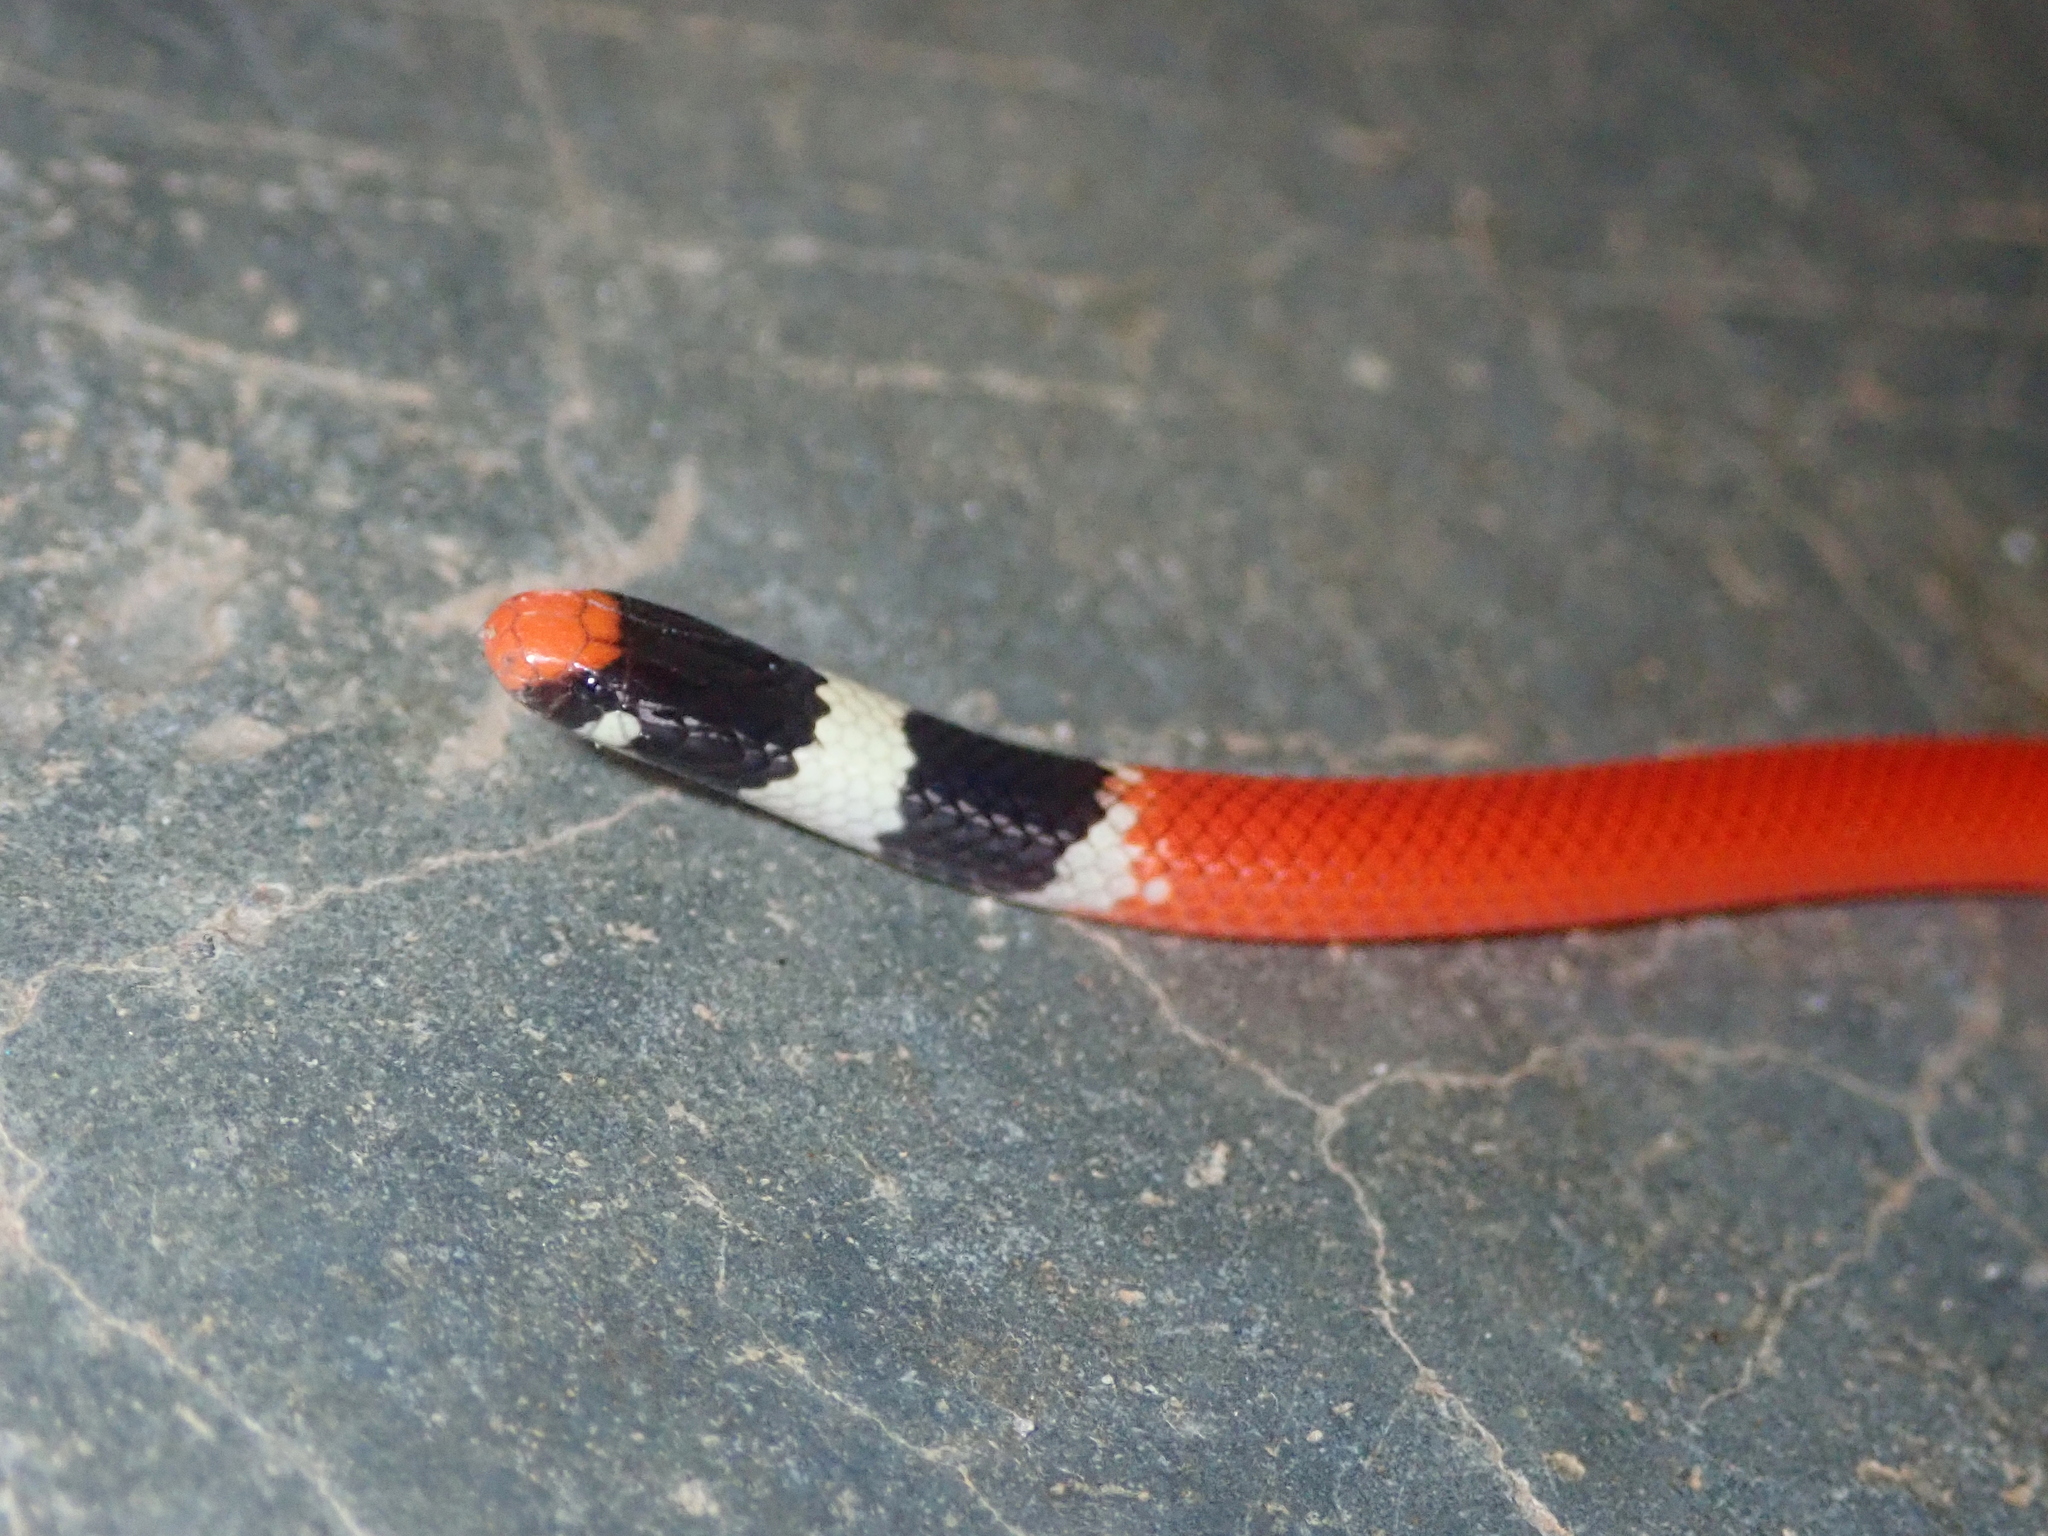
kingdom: Animalia
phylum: Chordata
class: Squamata
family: Colubridae
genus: Apostolepis
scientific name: Apostolepis sanctaeritae
